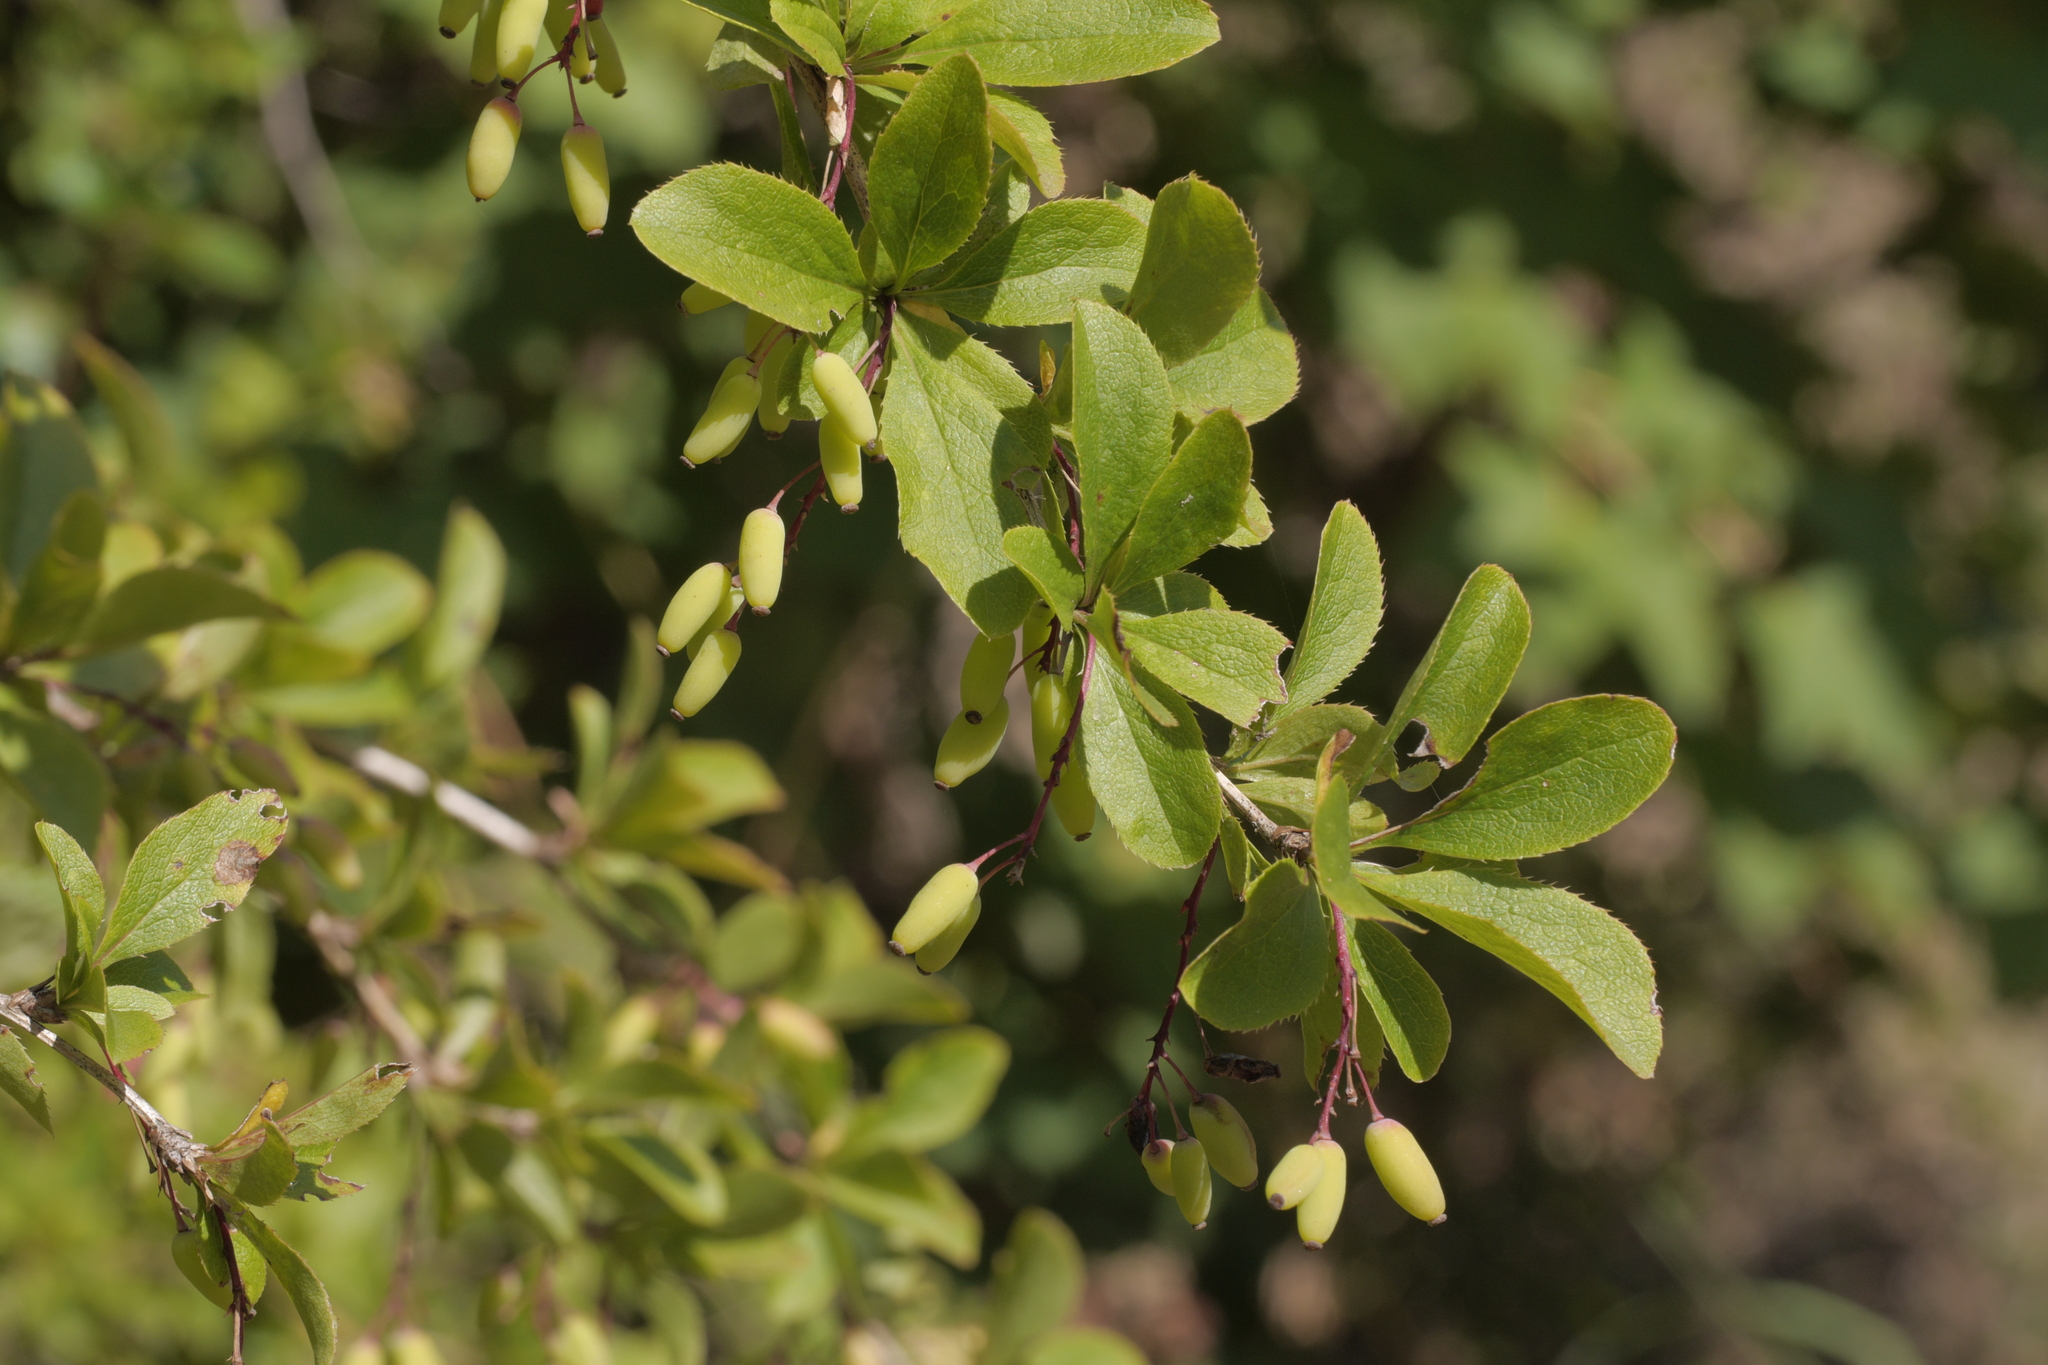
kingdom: Plantae
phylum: Tracheophyta
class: Magnoliopsida
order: Ranunculales
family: Berberidaceae
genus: Berberis
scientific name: Berberis vulgaris
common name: Barberry
